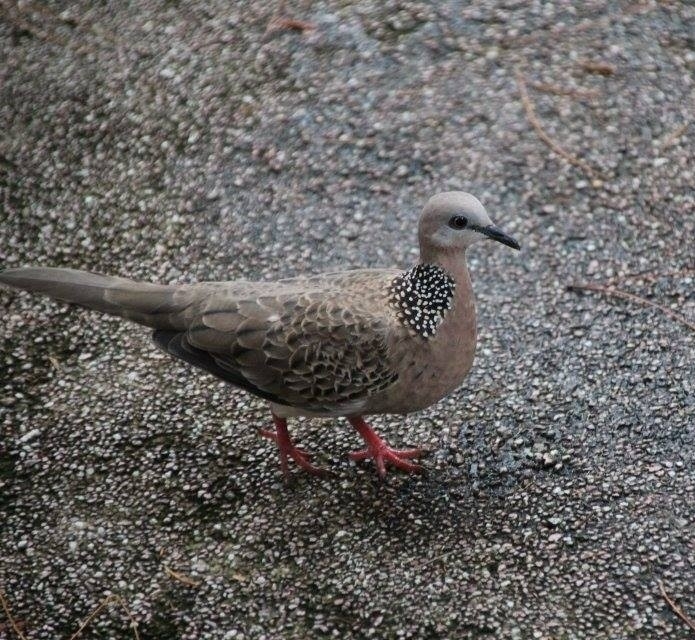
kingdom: Animalia
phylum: Chordata
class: Aves
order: Columbiformes
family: Columbidae
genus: Spilopelia
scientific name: Spilopelia chinensis
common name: Spotted dove
